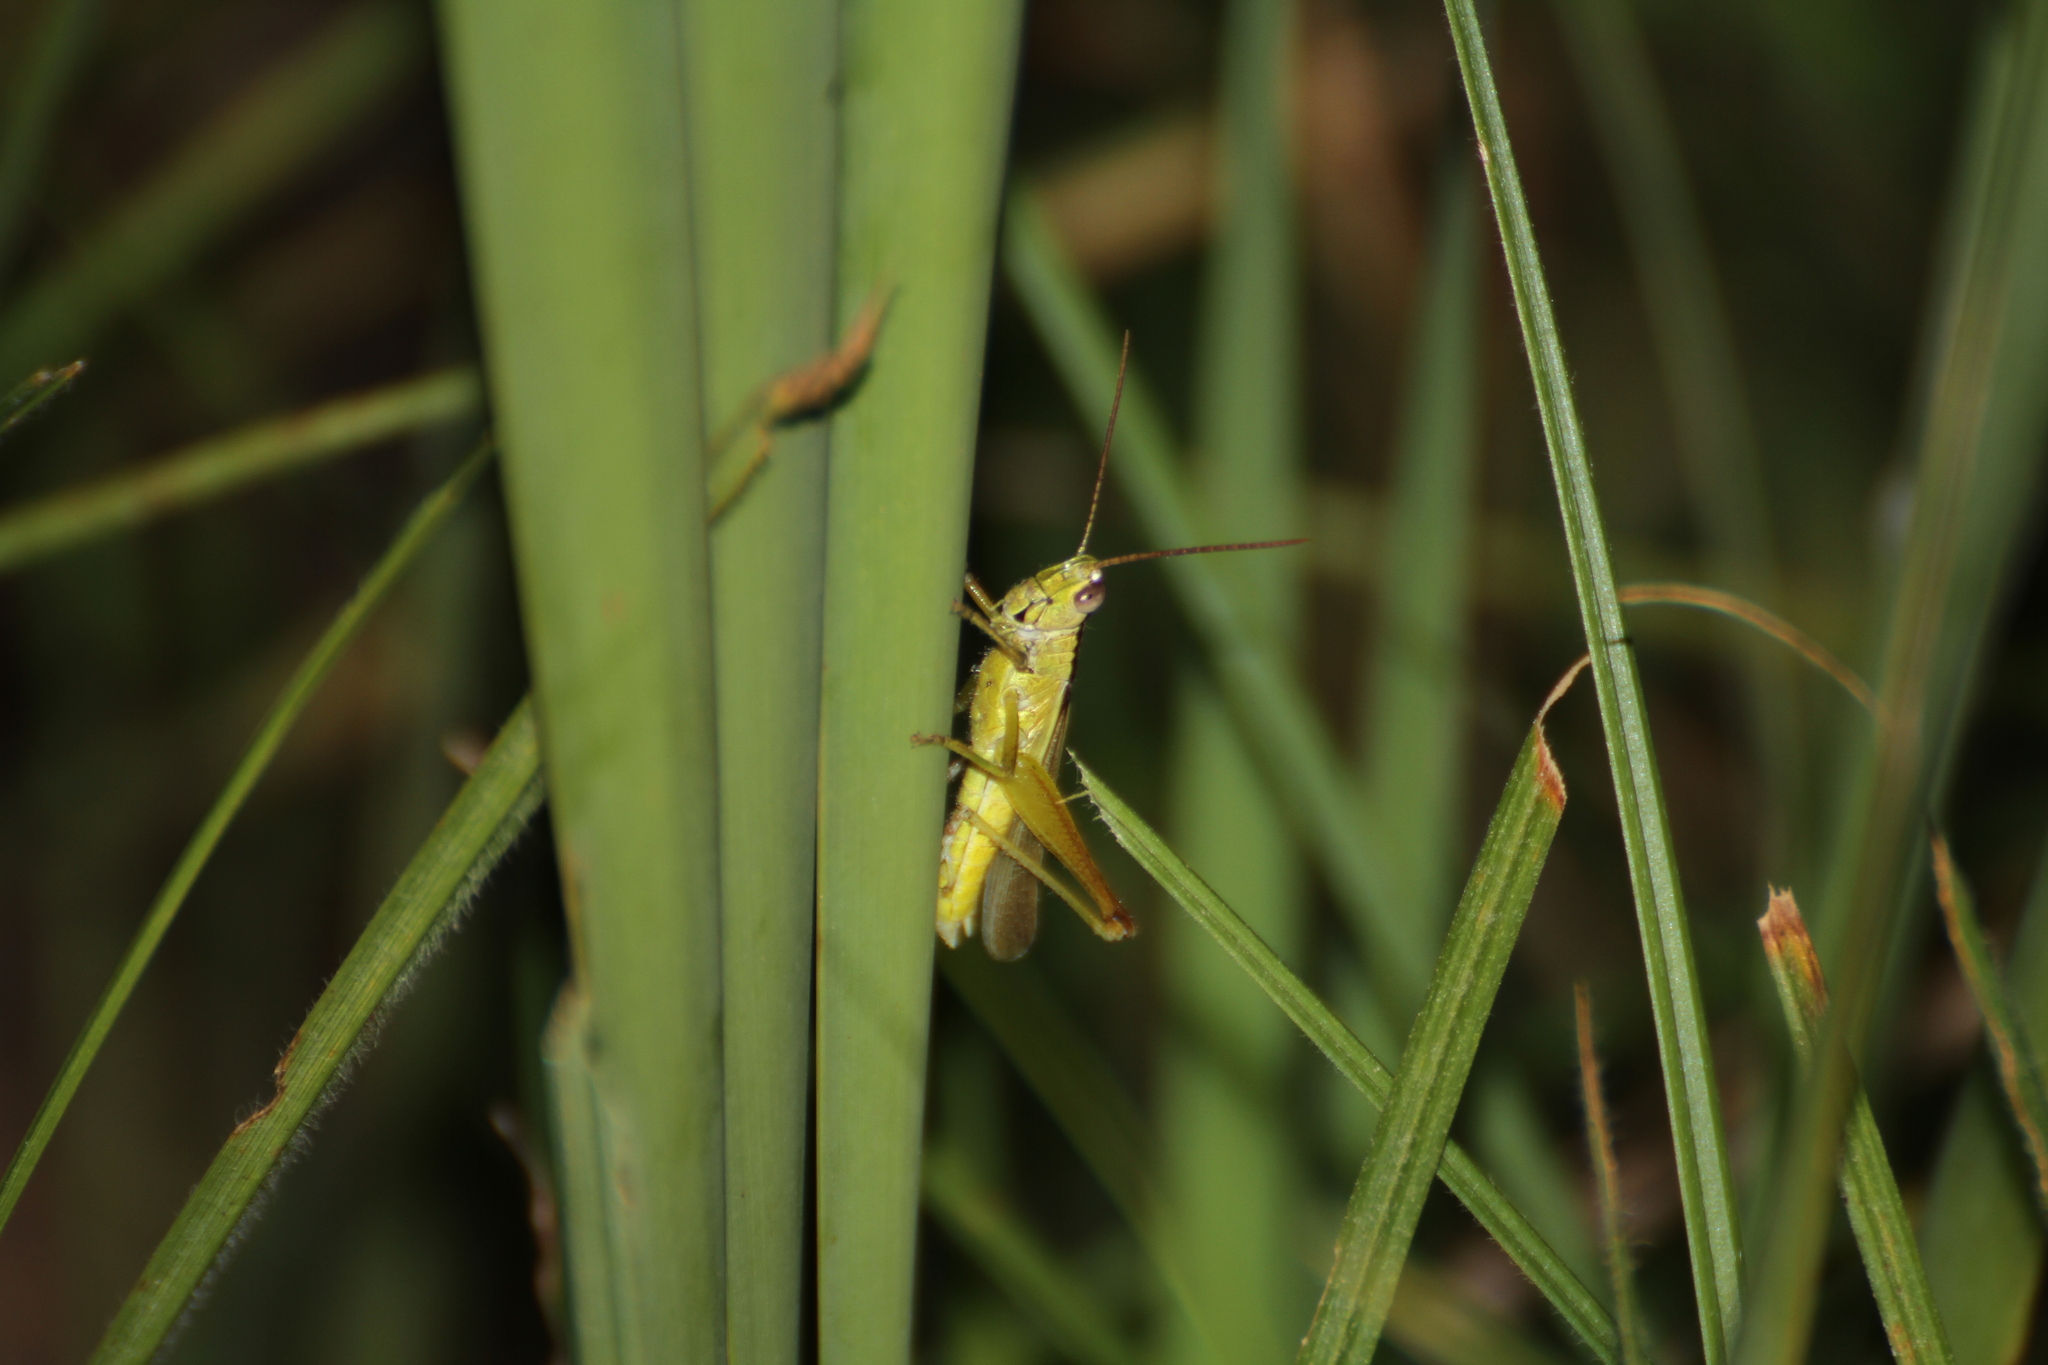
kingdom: Animalia
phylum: Arthropoda
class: Insecta
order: Orthoptera
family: Acrididae
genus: Mecostethus
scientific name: Mecostethus parapleurus
